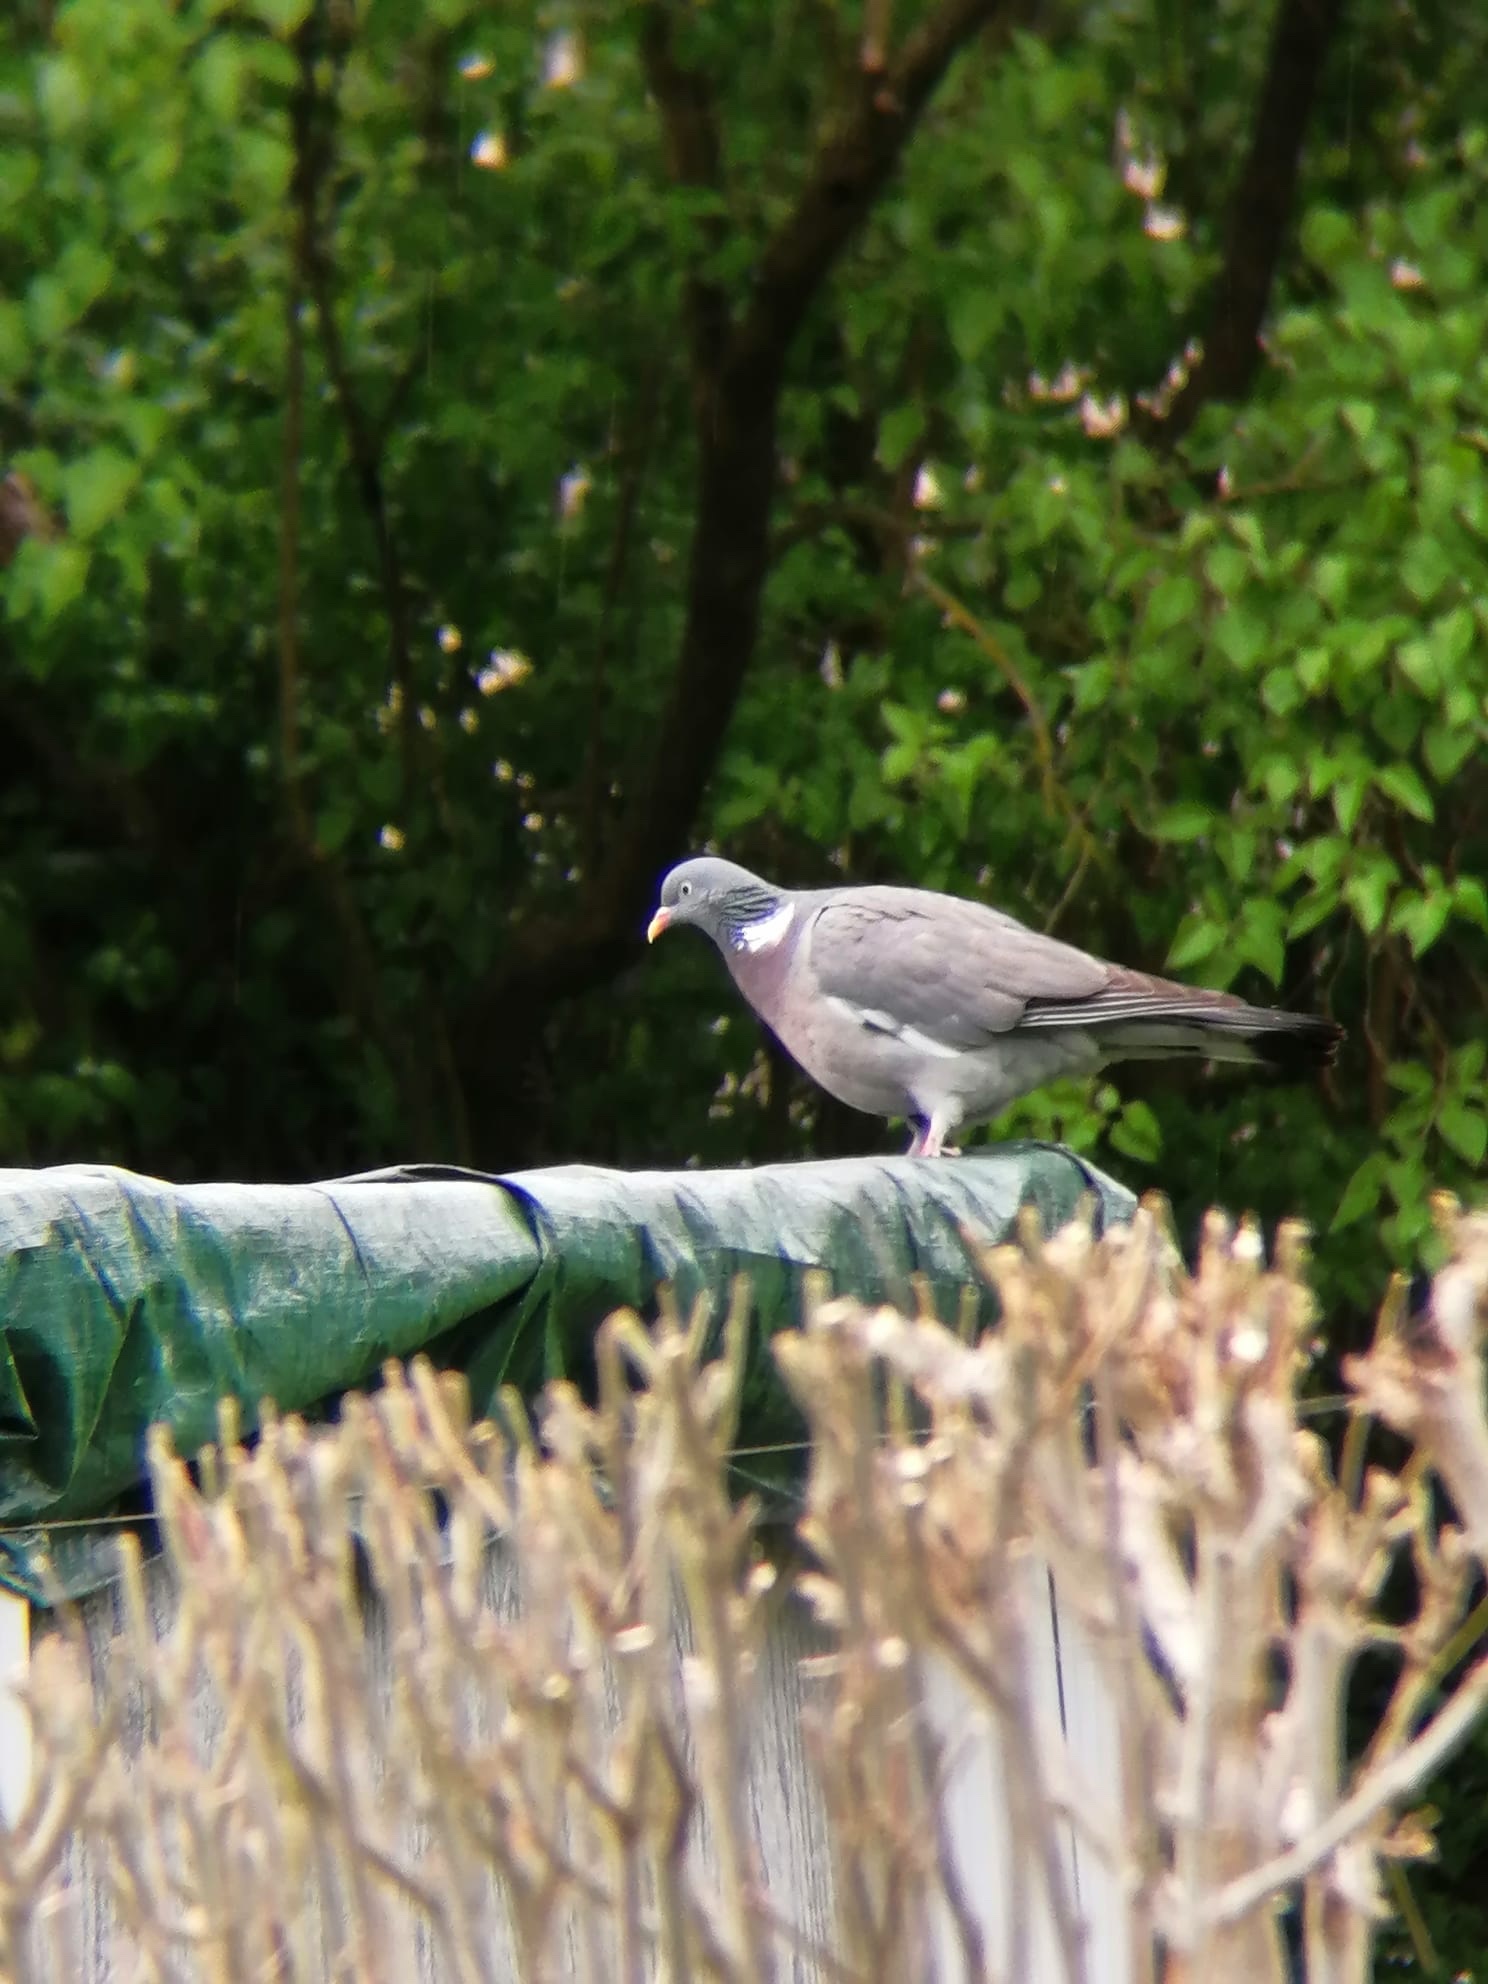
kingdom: Animalia
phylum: Chordata
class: Aves
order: Columbiformes
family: Columbidae
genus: Columba
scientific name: Columba palumbus
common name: Common wood pigeon
